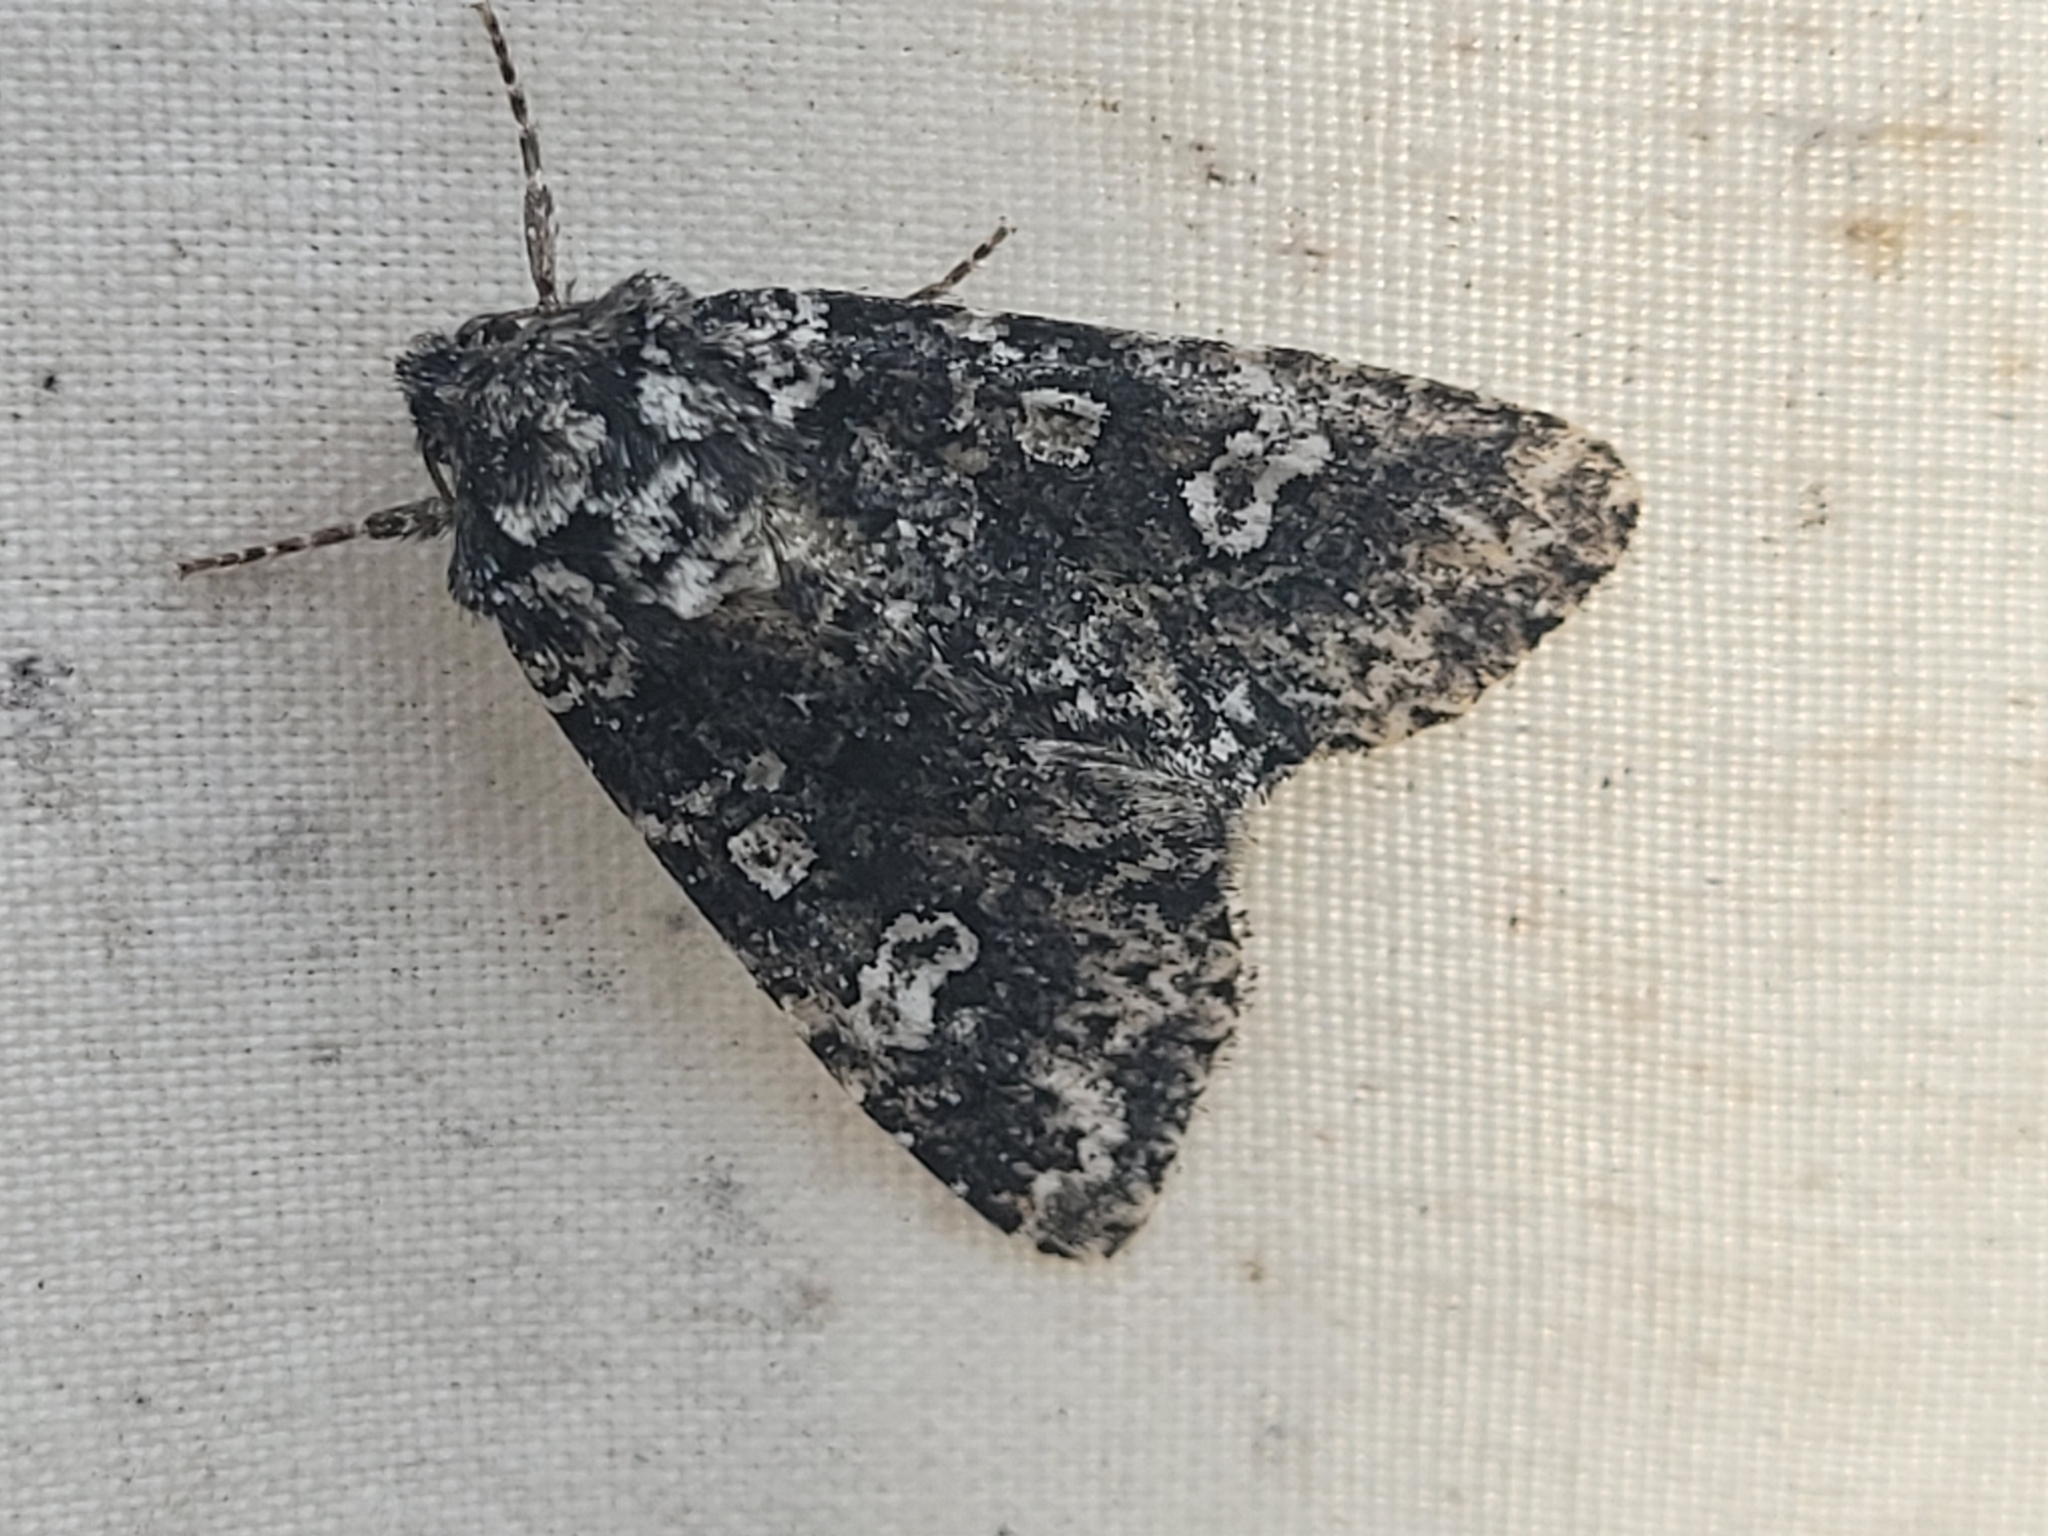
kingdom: Animalia
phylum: Arthropoda
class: Insecta
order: Lepidoptera
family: Noctuidae
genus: Melanchra
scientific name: Melanchra adjuncta
